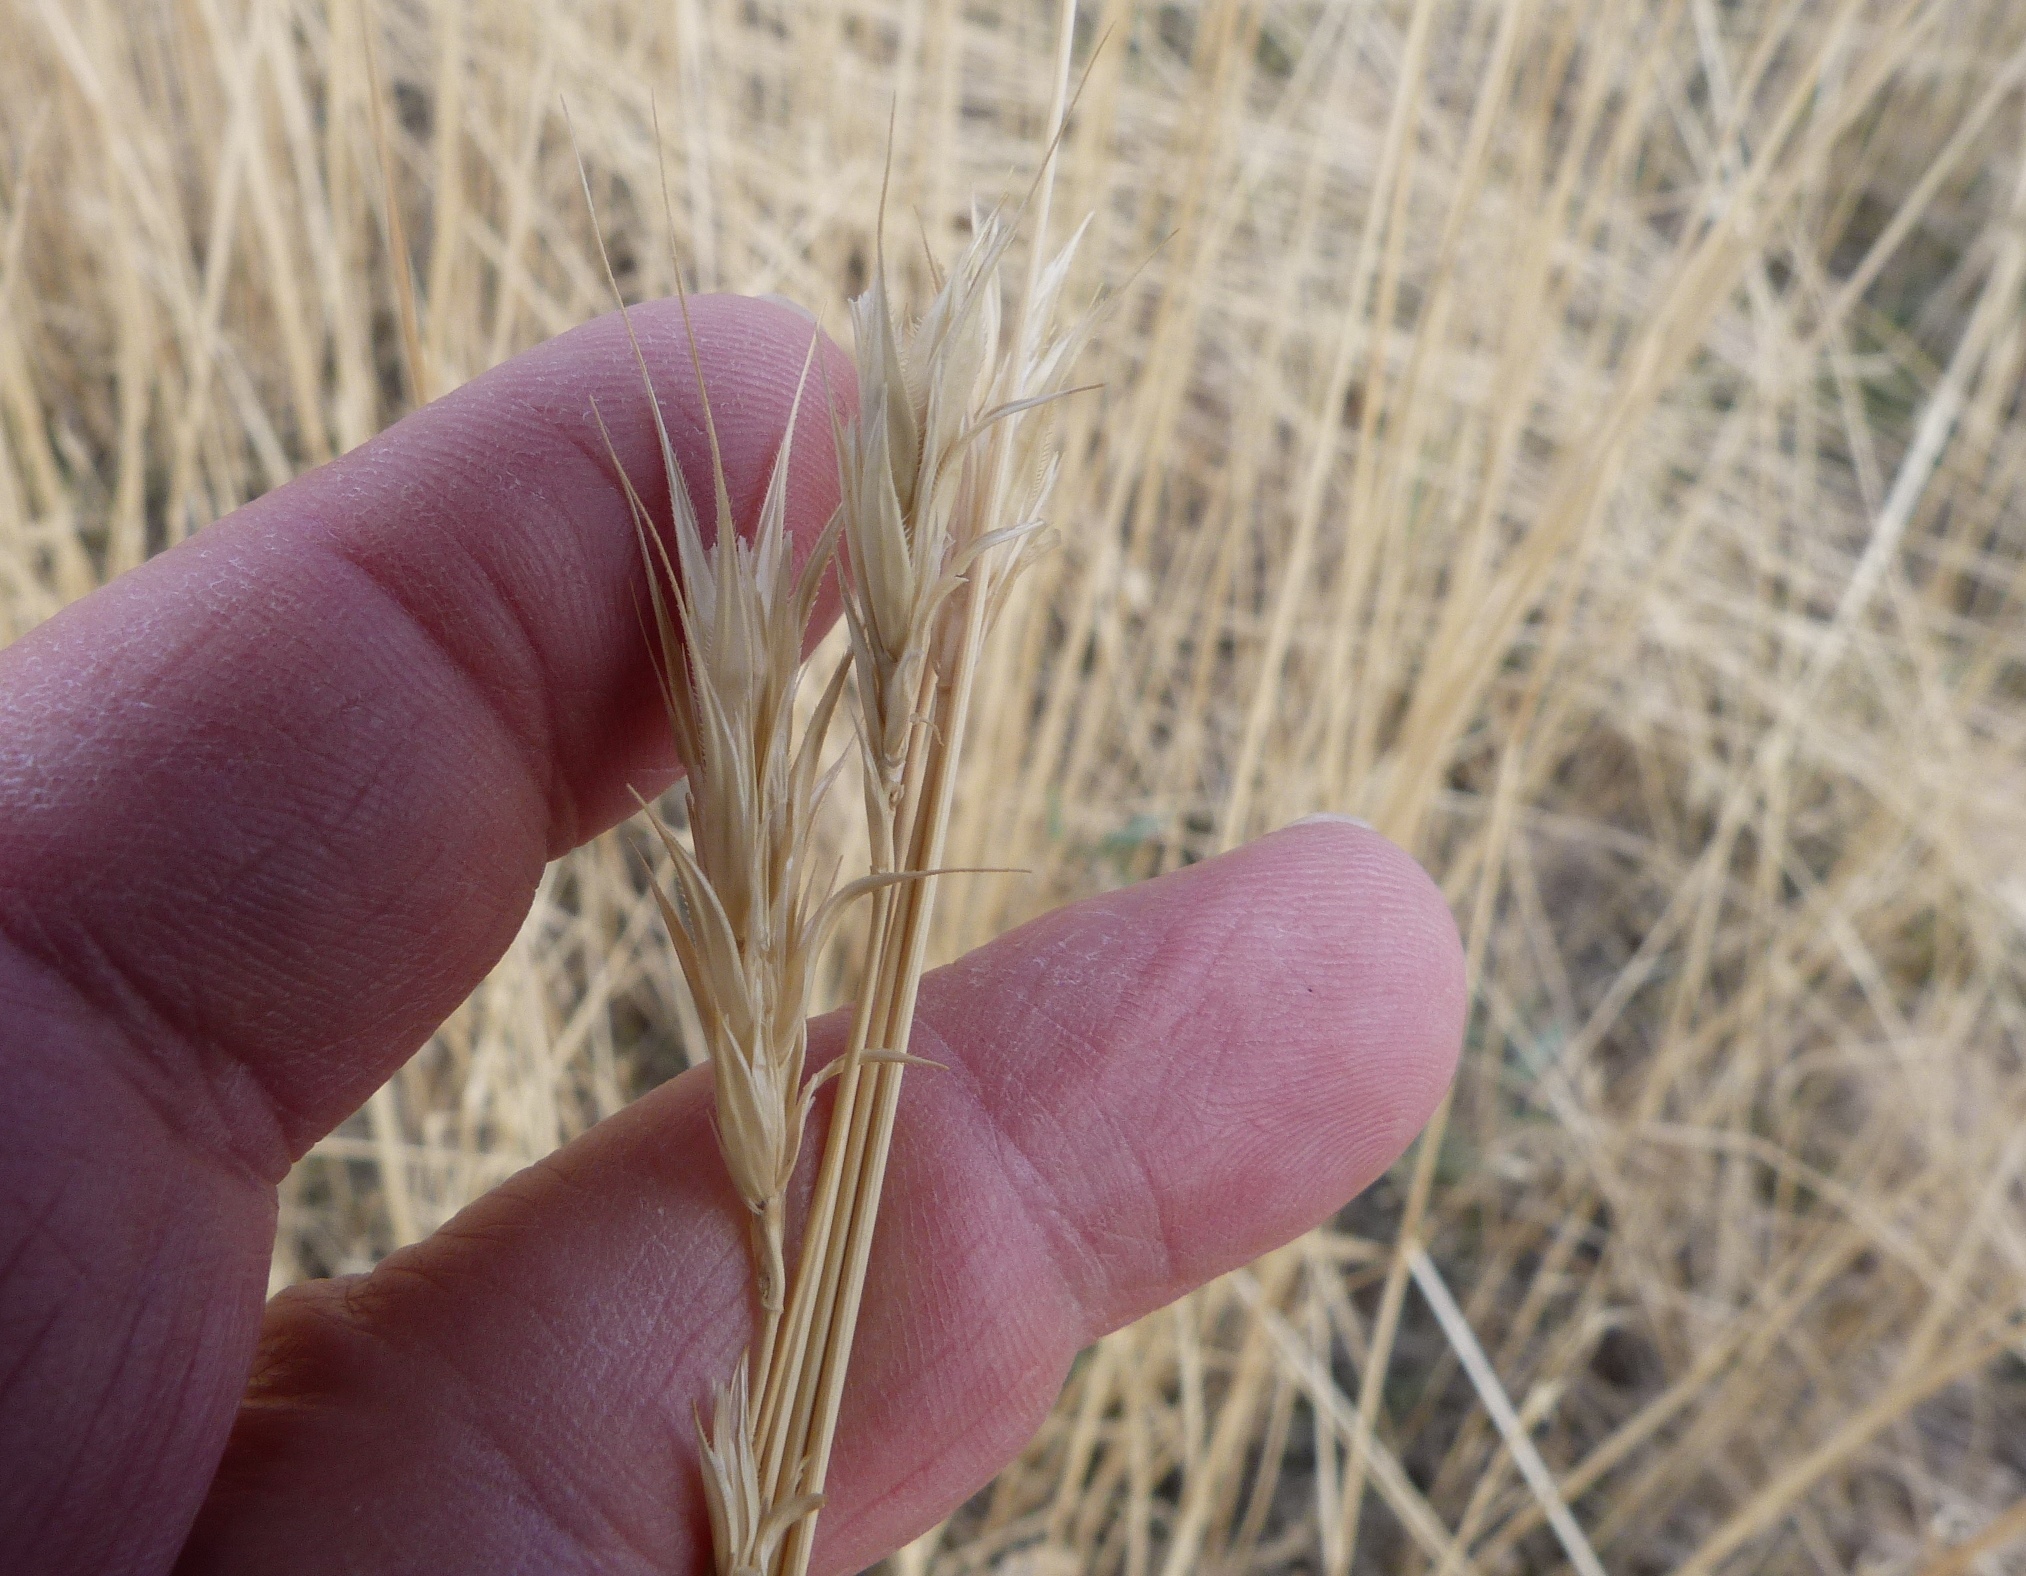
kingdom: Plantae
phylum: Tracheophyta
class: Liliopsida
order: Poales
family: Poaceae
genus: Secale
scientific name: Secale cereale
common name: Rye
